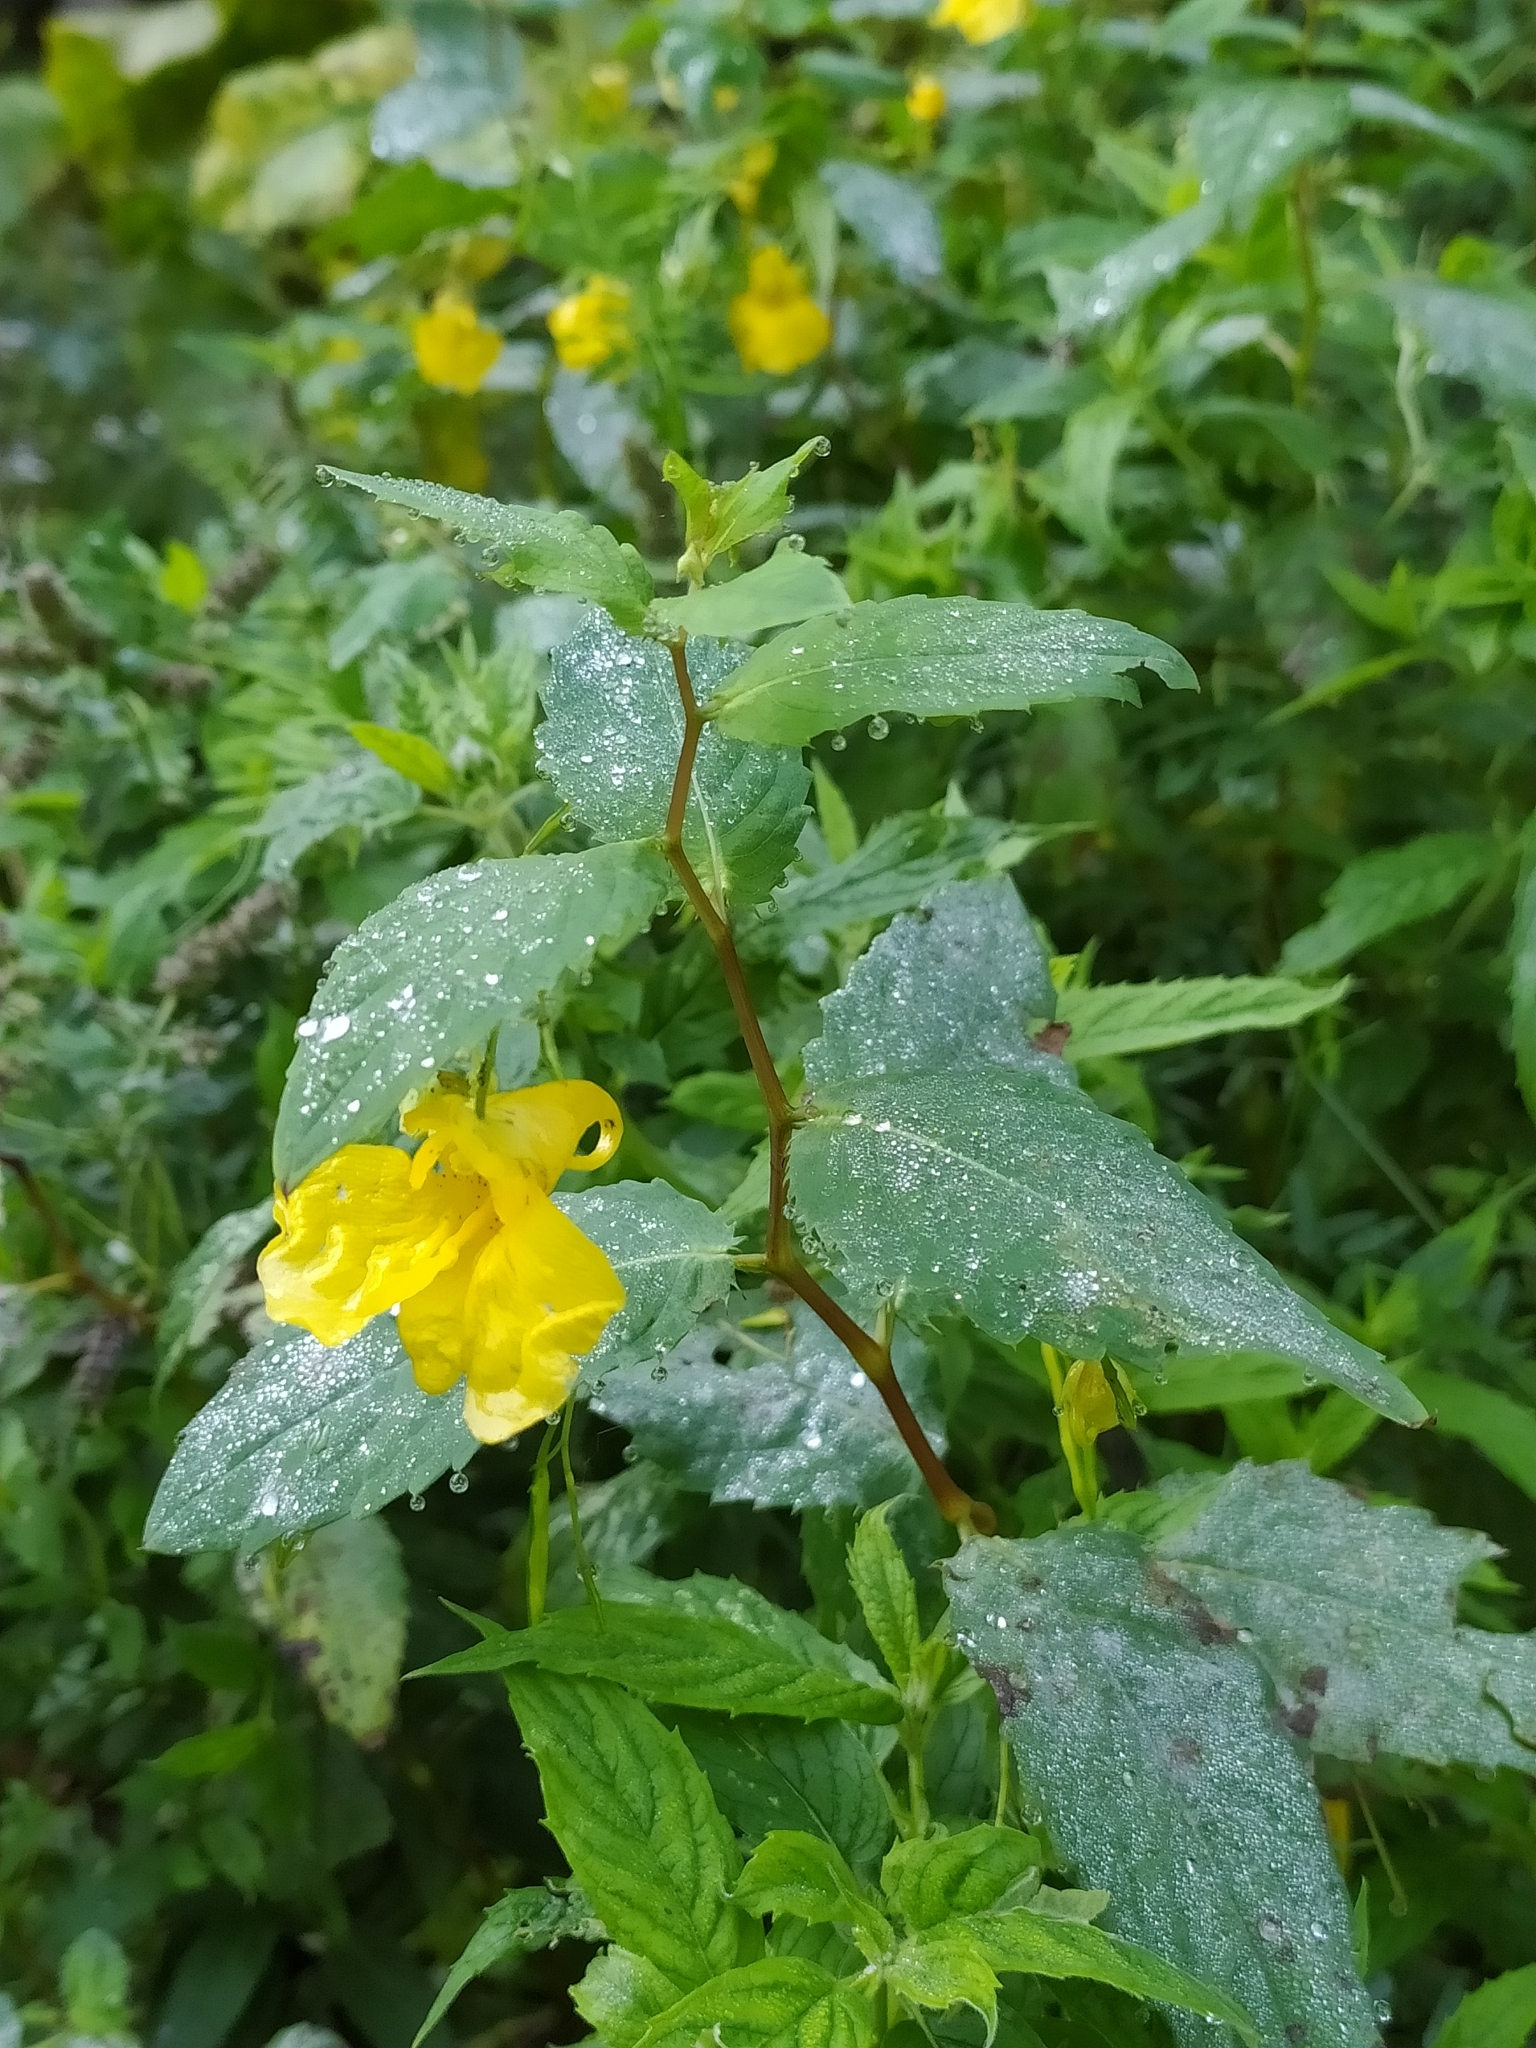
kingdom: Plantae
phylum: Tracheophyta
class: Magnoliopsida
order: Ericales
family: Balsaminaceae
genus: Impatiens
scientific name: Impatiens noli-tangere
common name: Touch-me-not balsam
